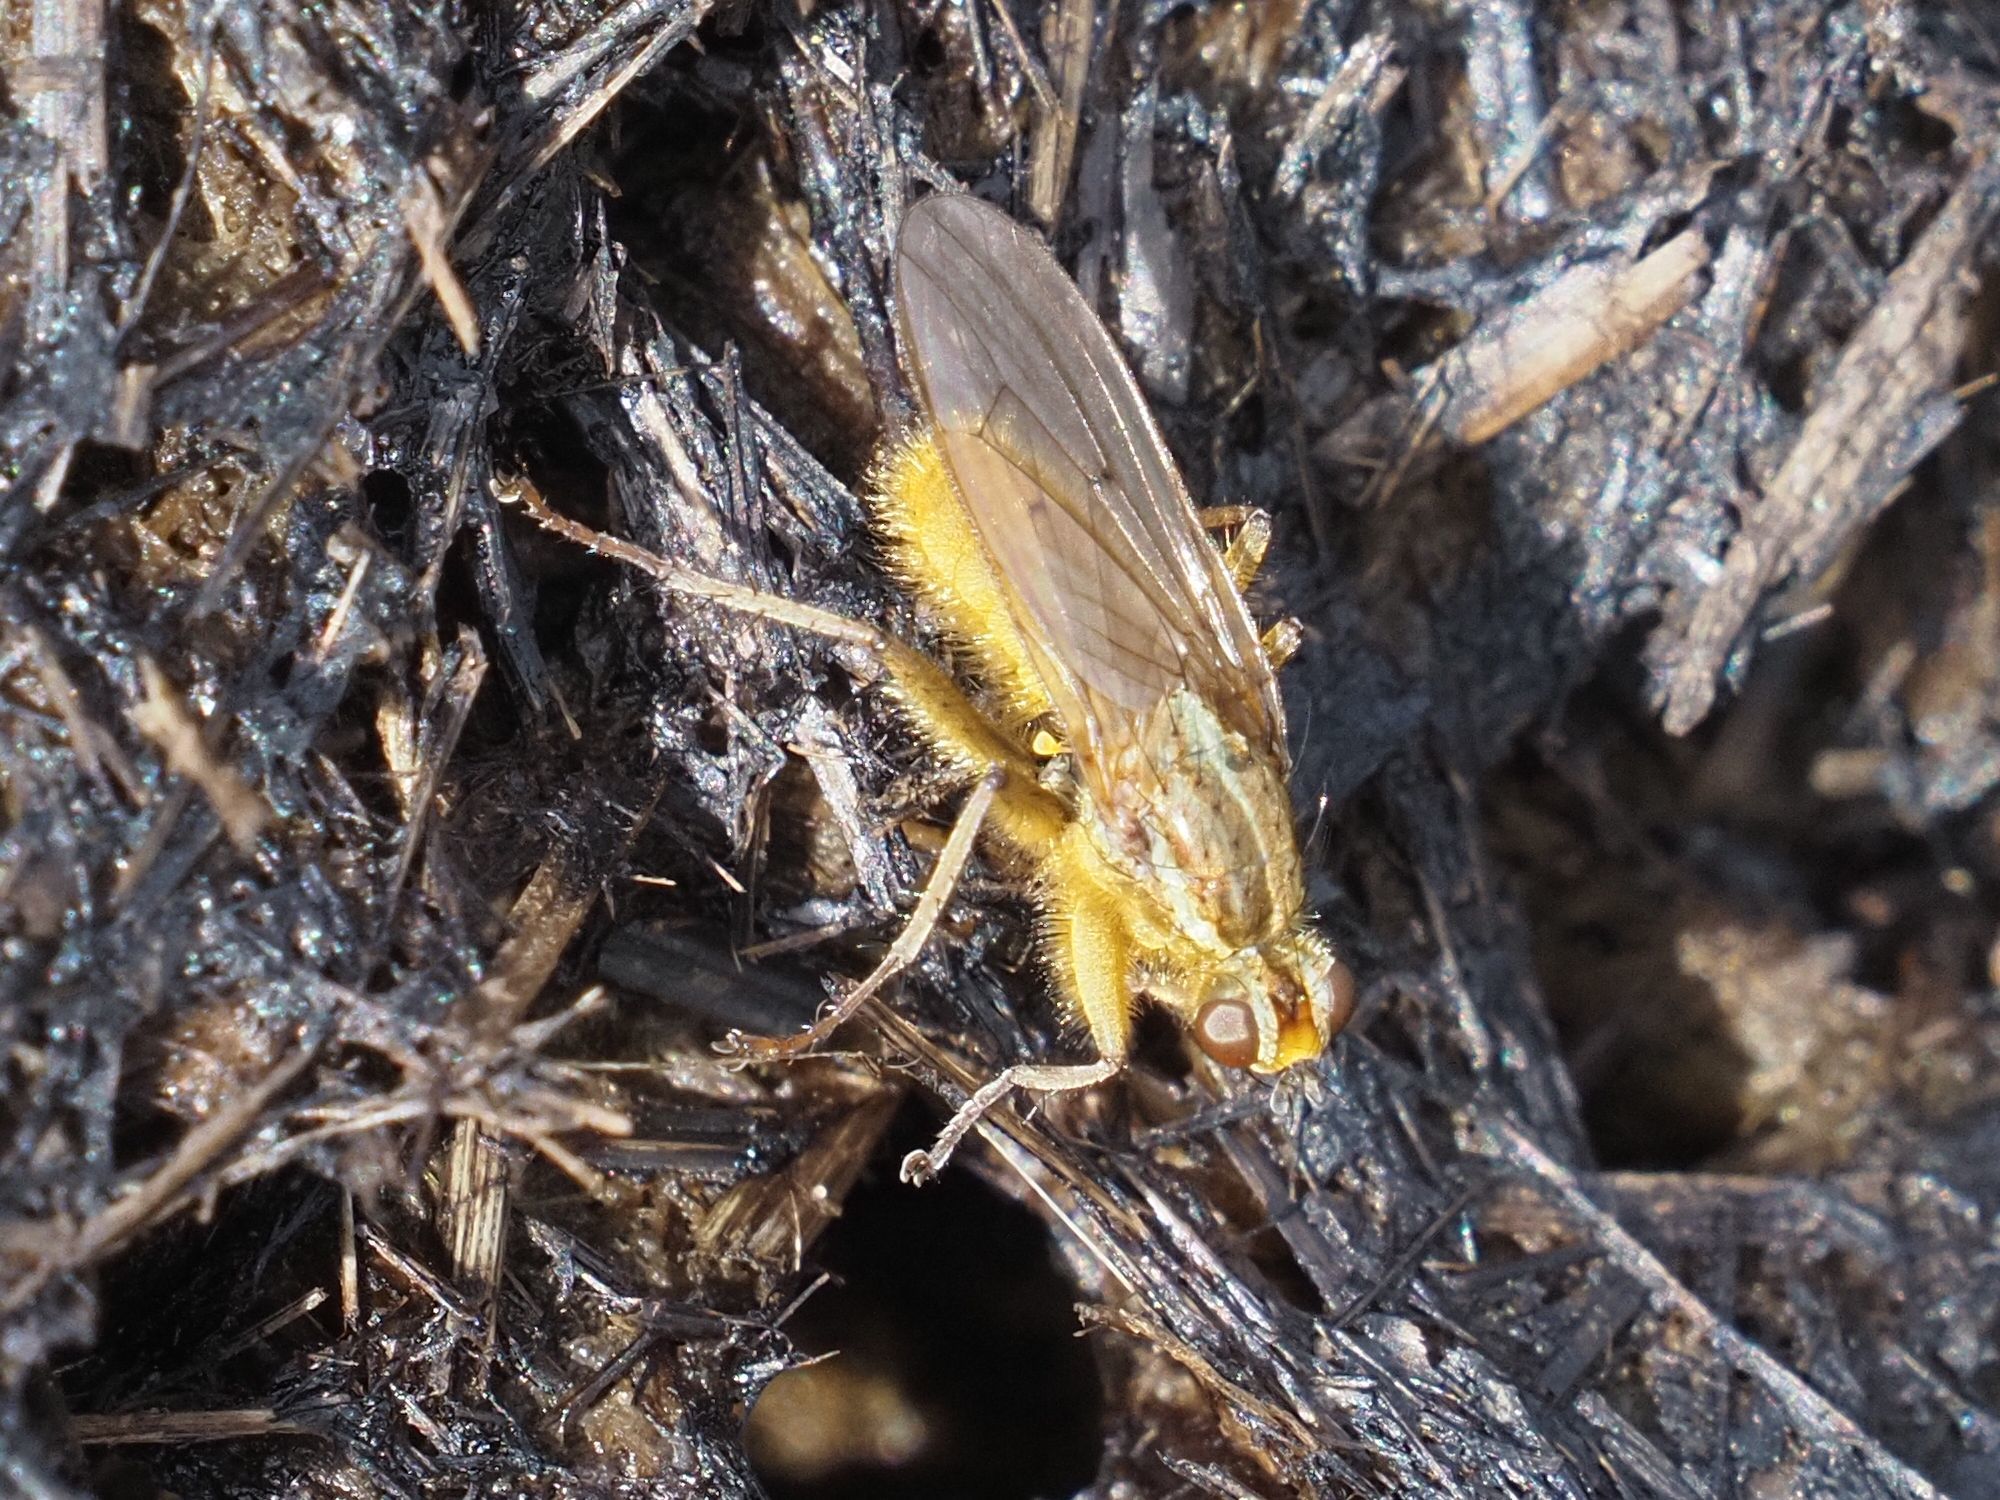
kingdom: Animalia
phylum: Arthropoda
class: Insecta
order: Diptera
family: Scathophagidae
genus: Scathophaga
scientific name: Scathophaga stercoraria
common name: Yellow dung fly
